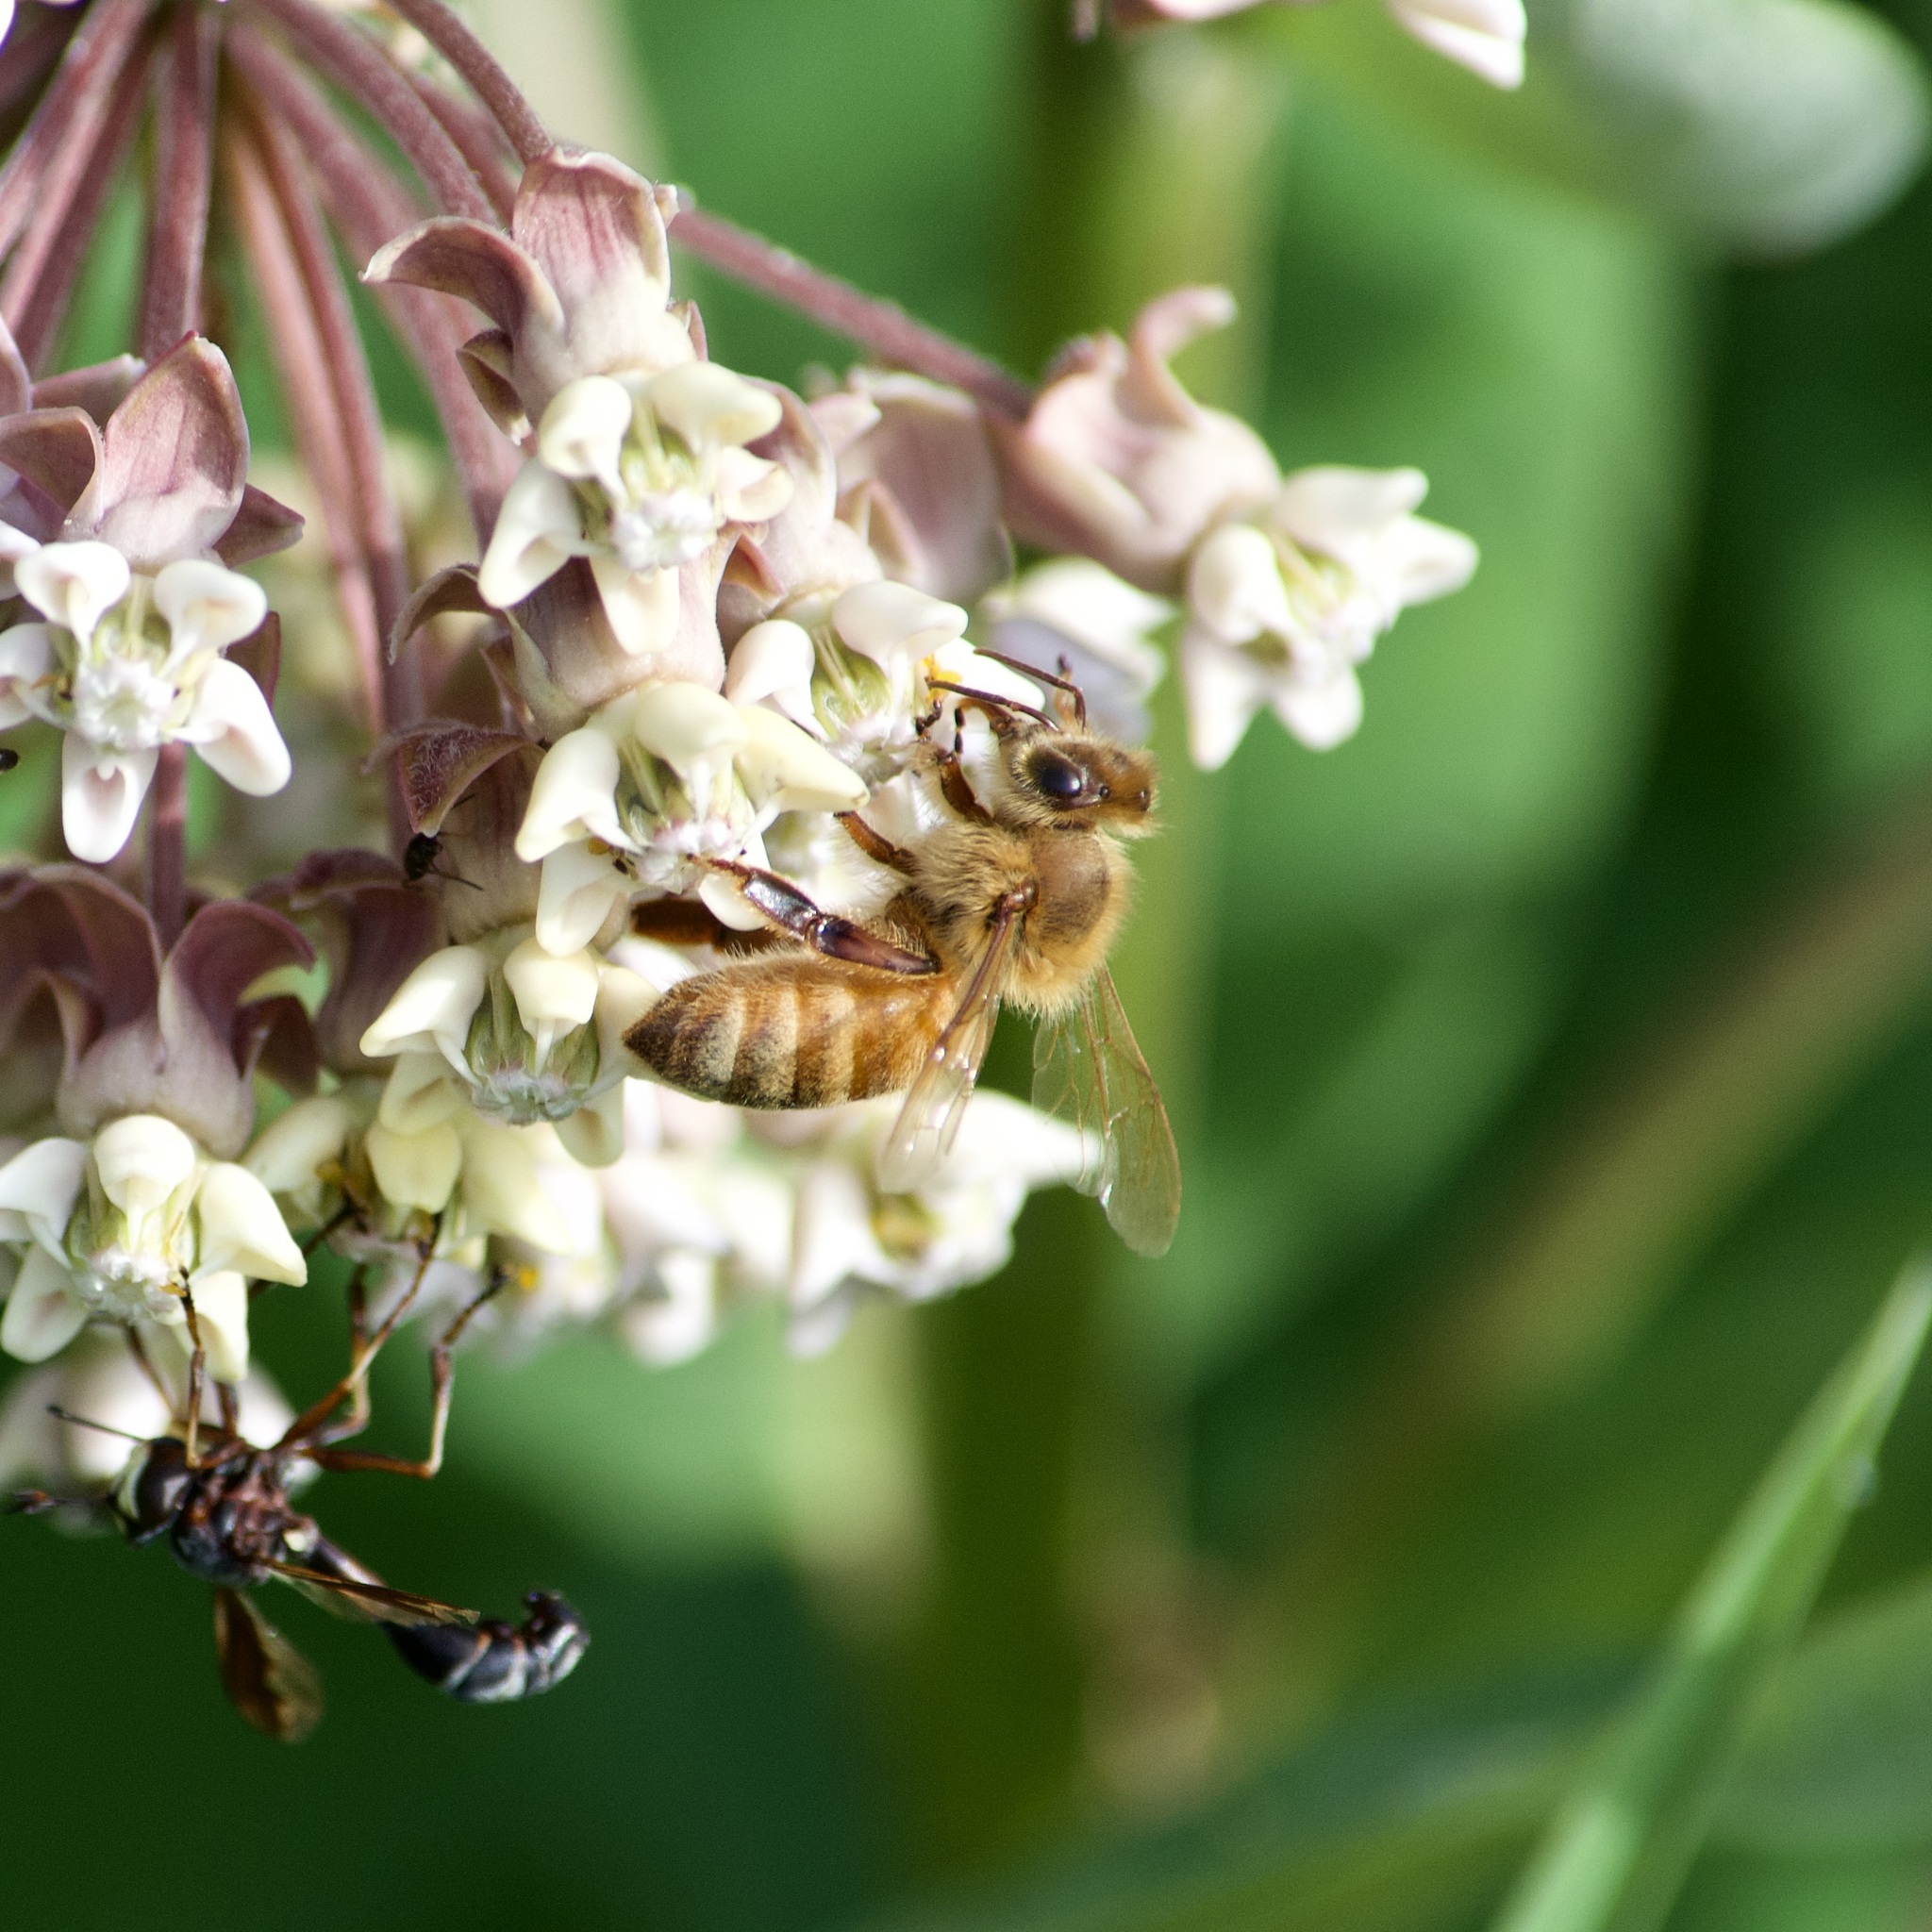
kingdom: Animalia
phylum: Arthropoda
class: Insecta
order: Hymenoptera
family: Apidae
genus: Apis
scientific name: Apis mellifera
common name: Honey bee
